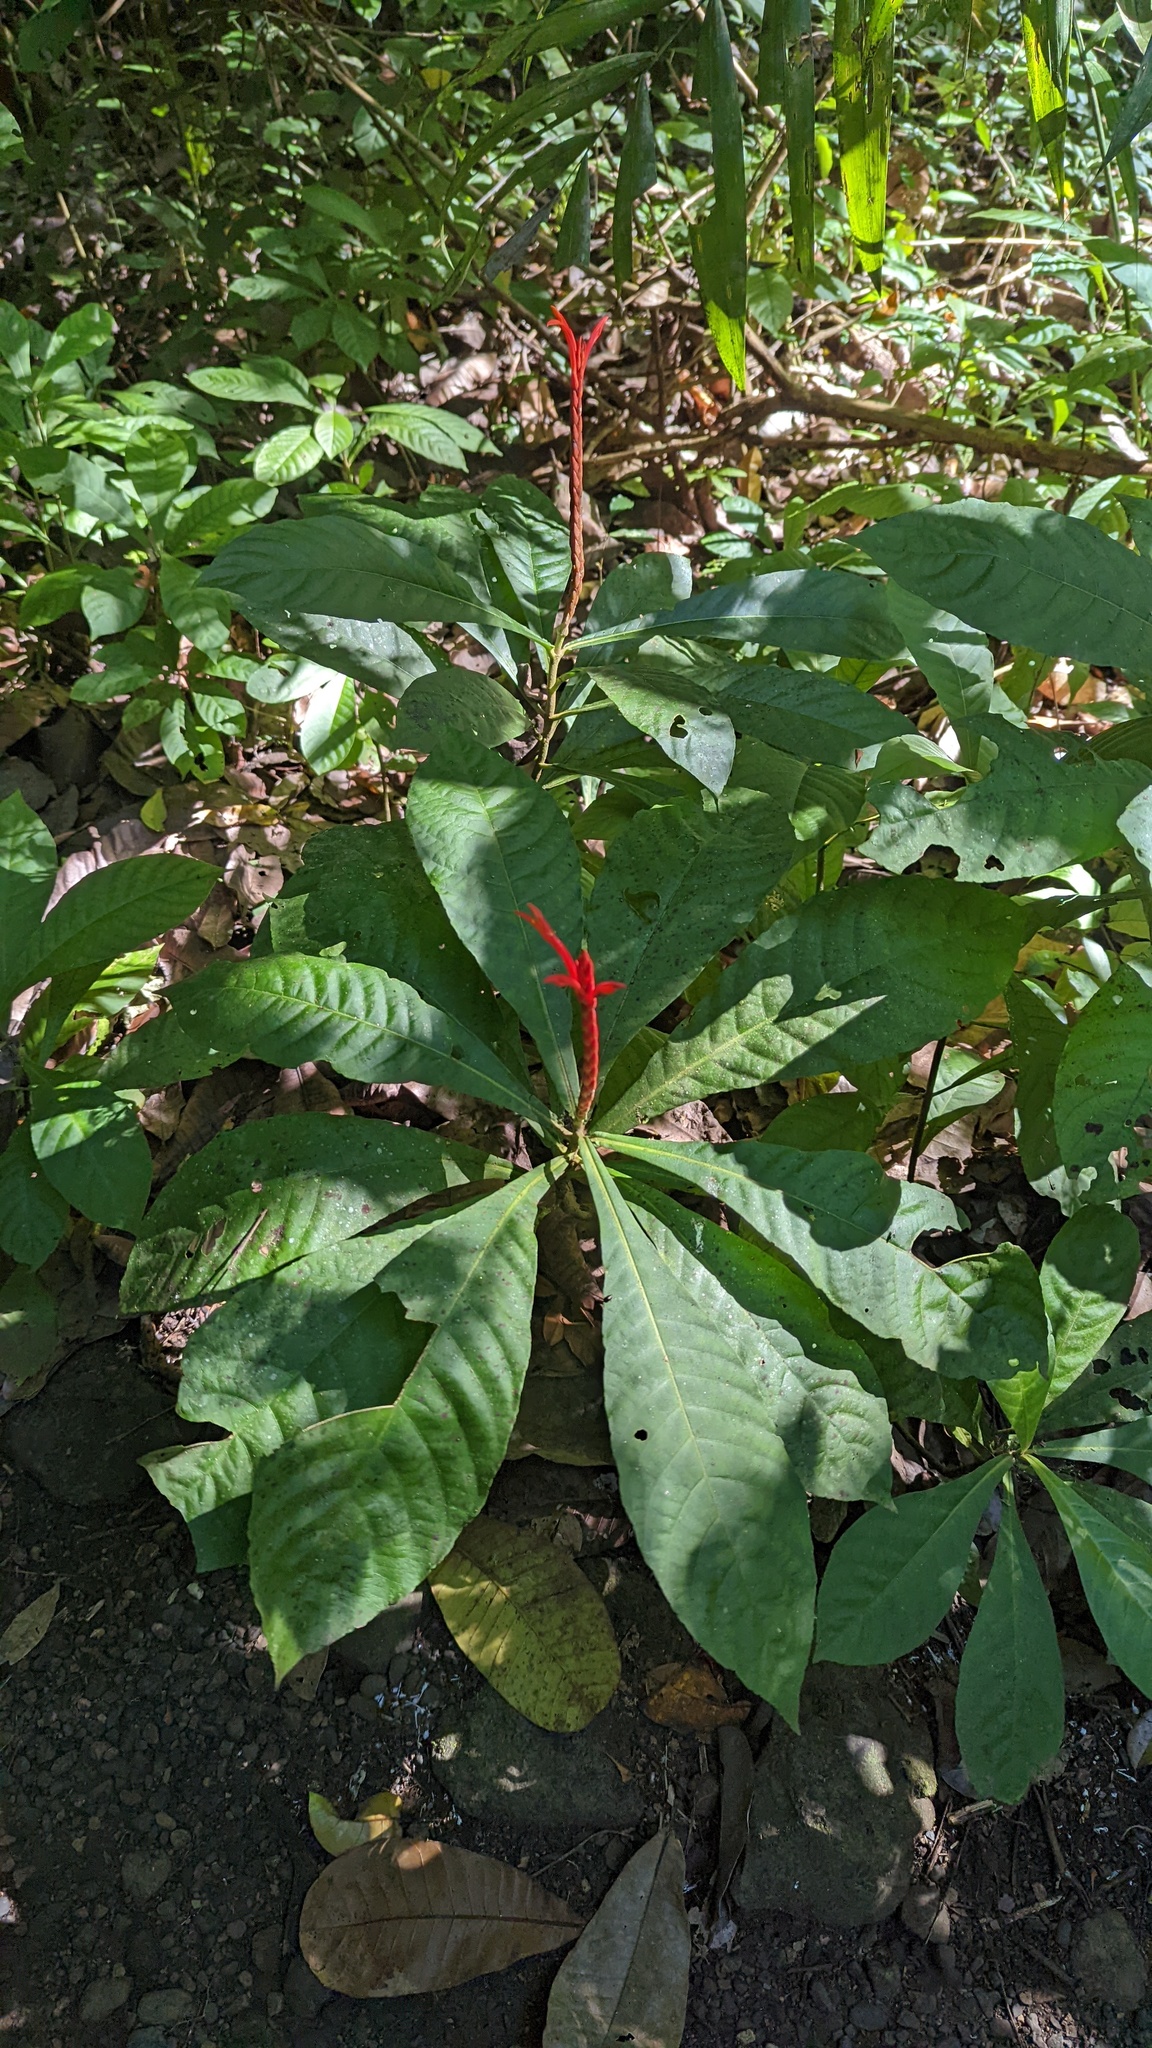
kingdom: Plantae
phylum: Tracheophyta
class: Magnoliopsida
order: Lamiales
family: Acanthaceae
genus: Aphelandra
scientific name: Aphelandra lingua-bovis
